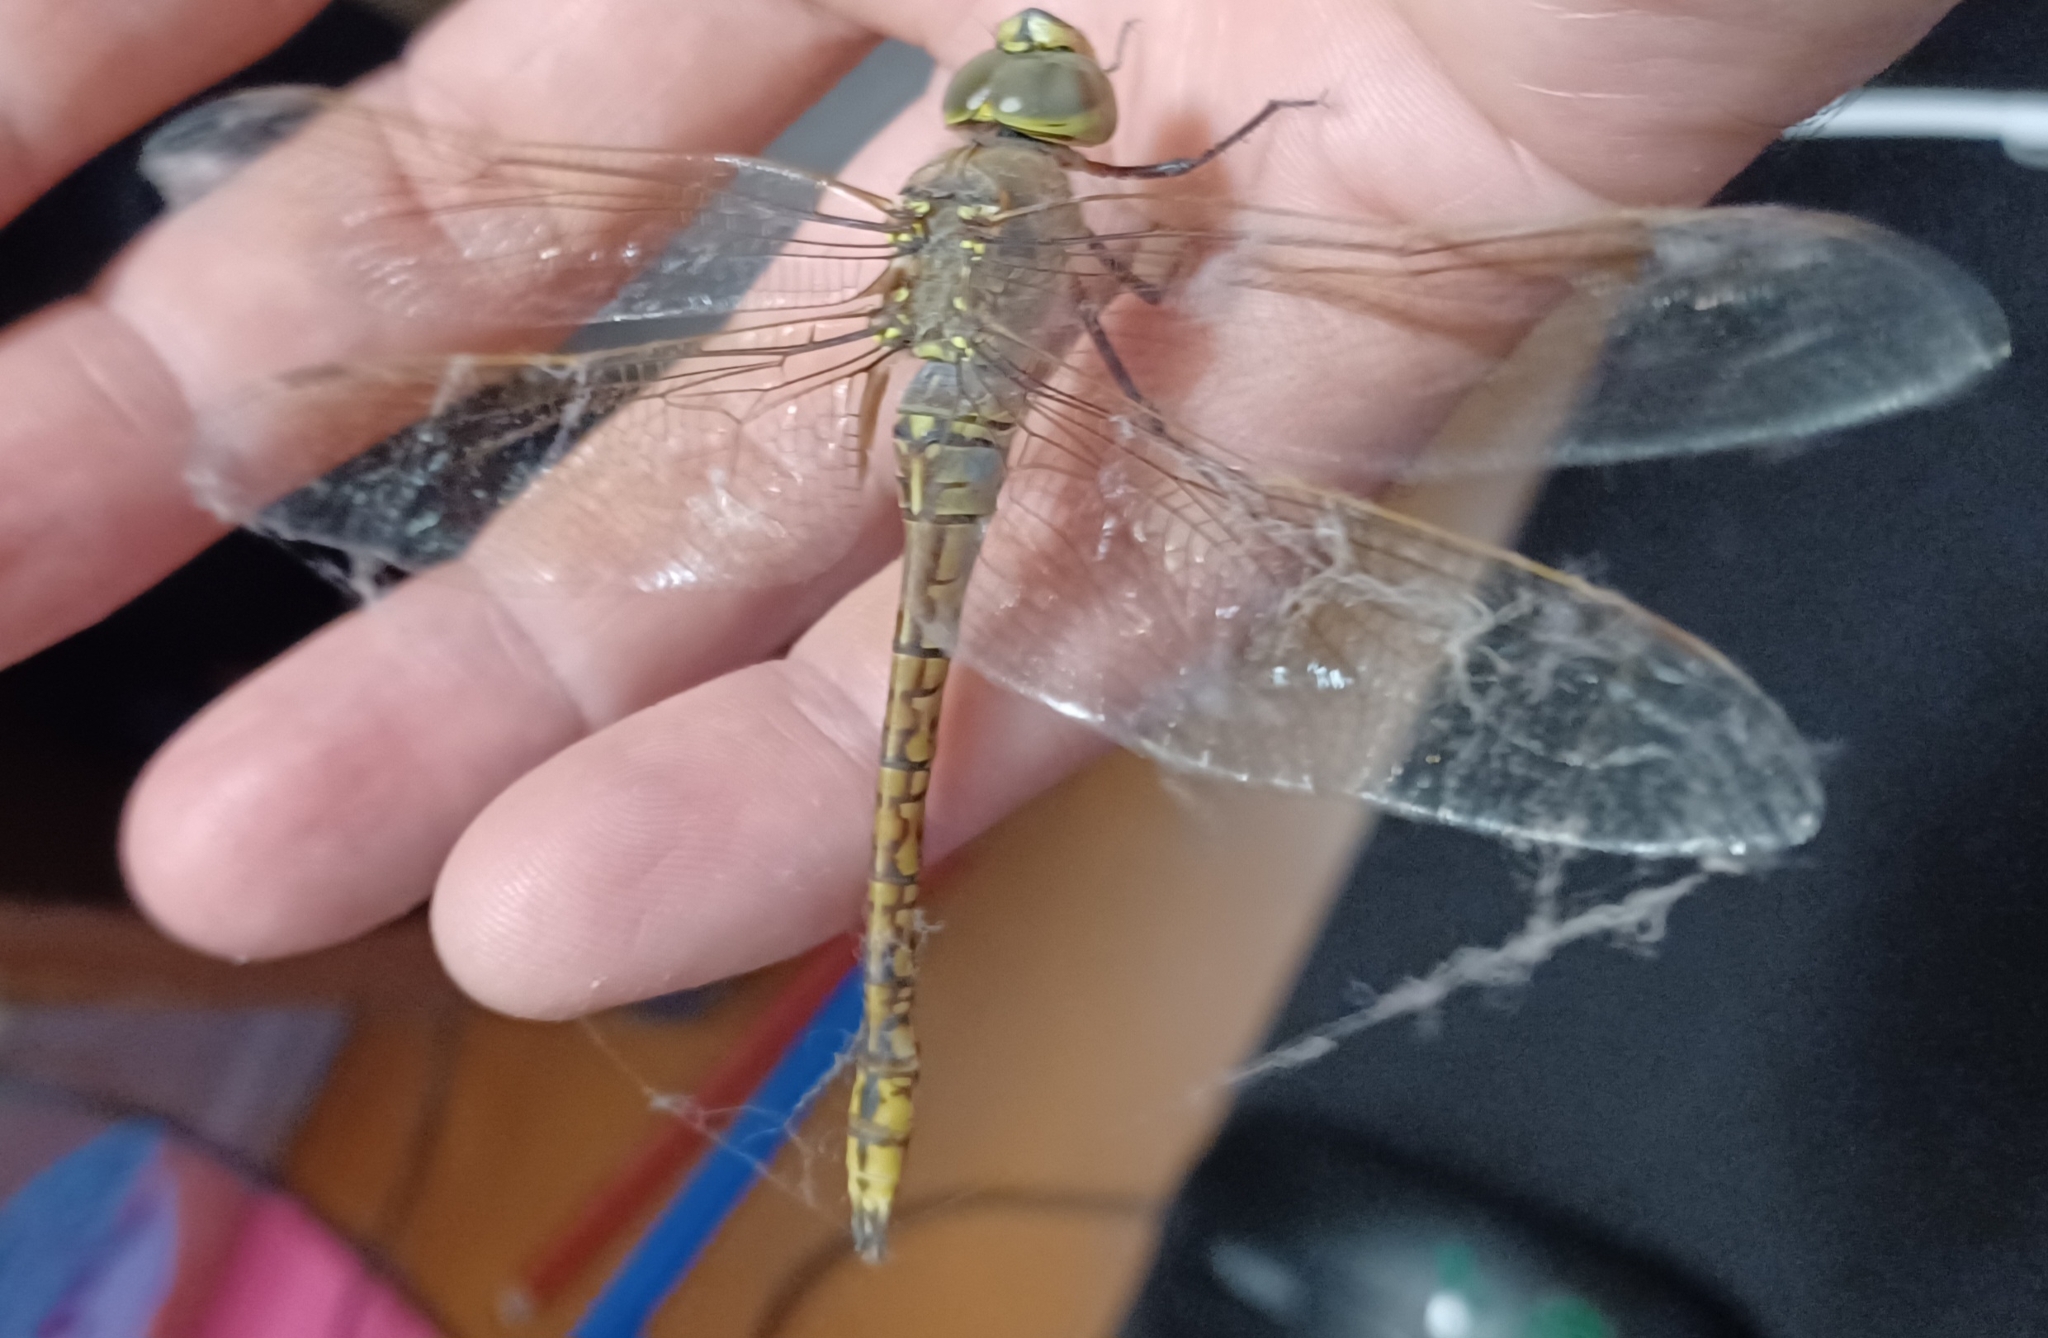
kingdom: Animalia
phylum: Arthropoda
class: Insecta
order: Odonata
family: Aeshnidae
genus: Anax
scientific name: Anax papuensis
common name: Australian emperor
